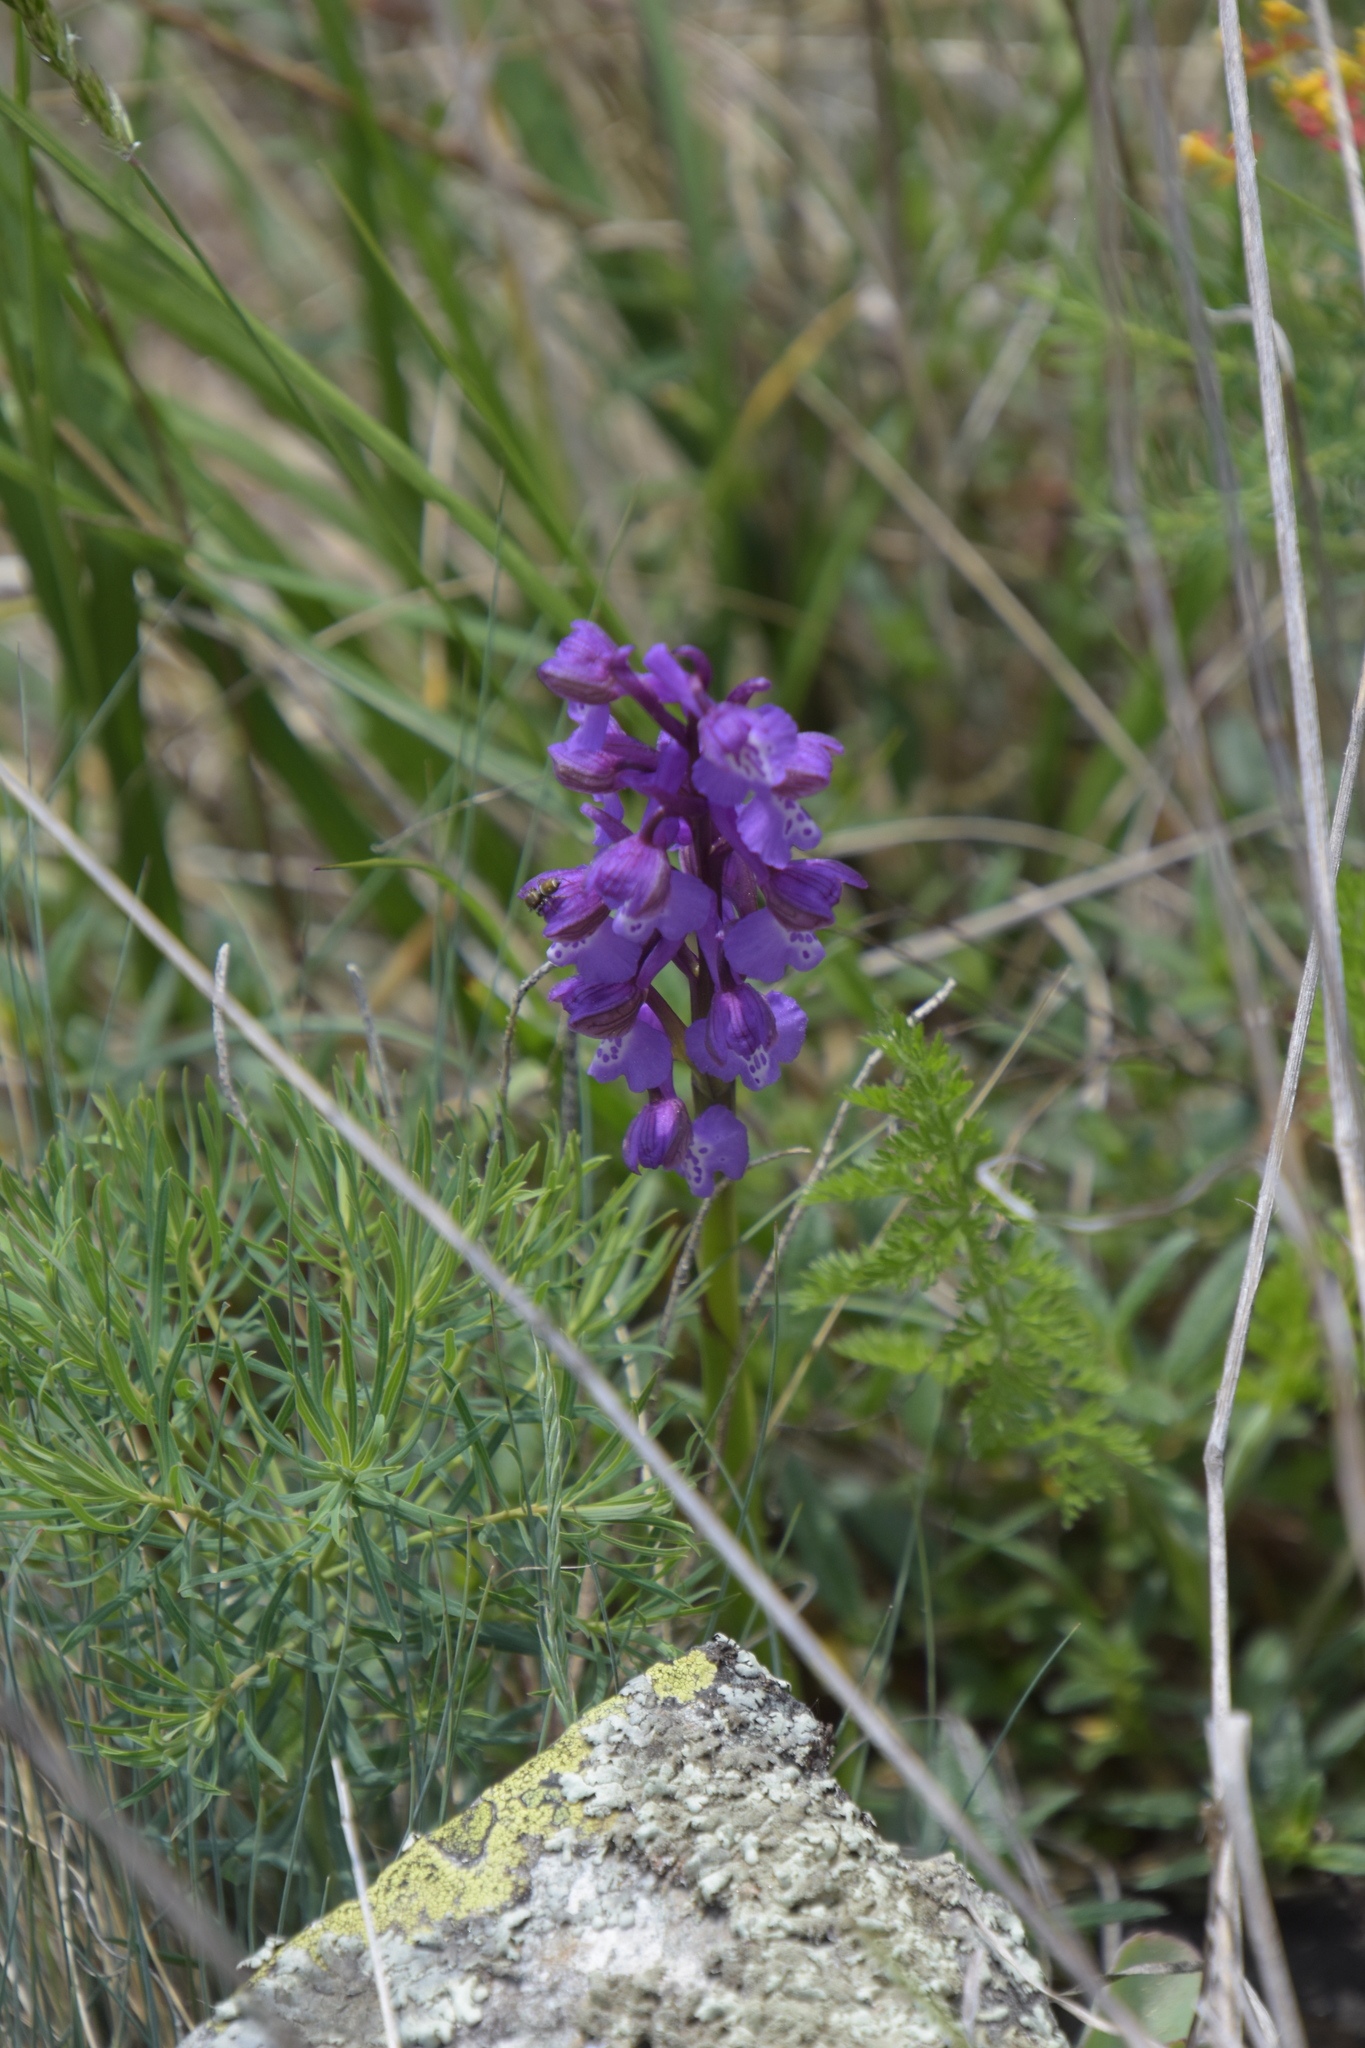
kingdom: Plantae
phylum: Tracheophyta
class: Liliopsida
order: Asparagales
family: Orchidaceae
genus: Anacamptis
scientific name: Anacamptis morio
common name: Green-winged orchid
